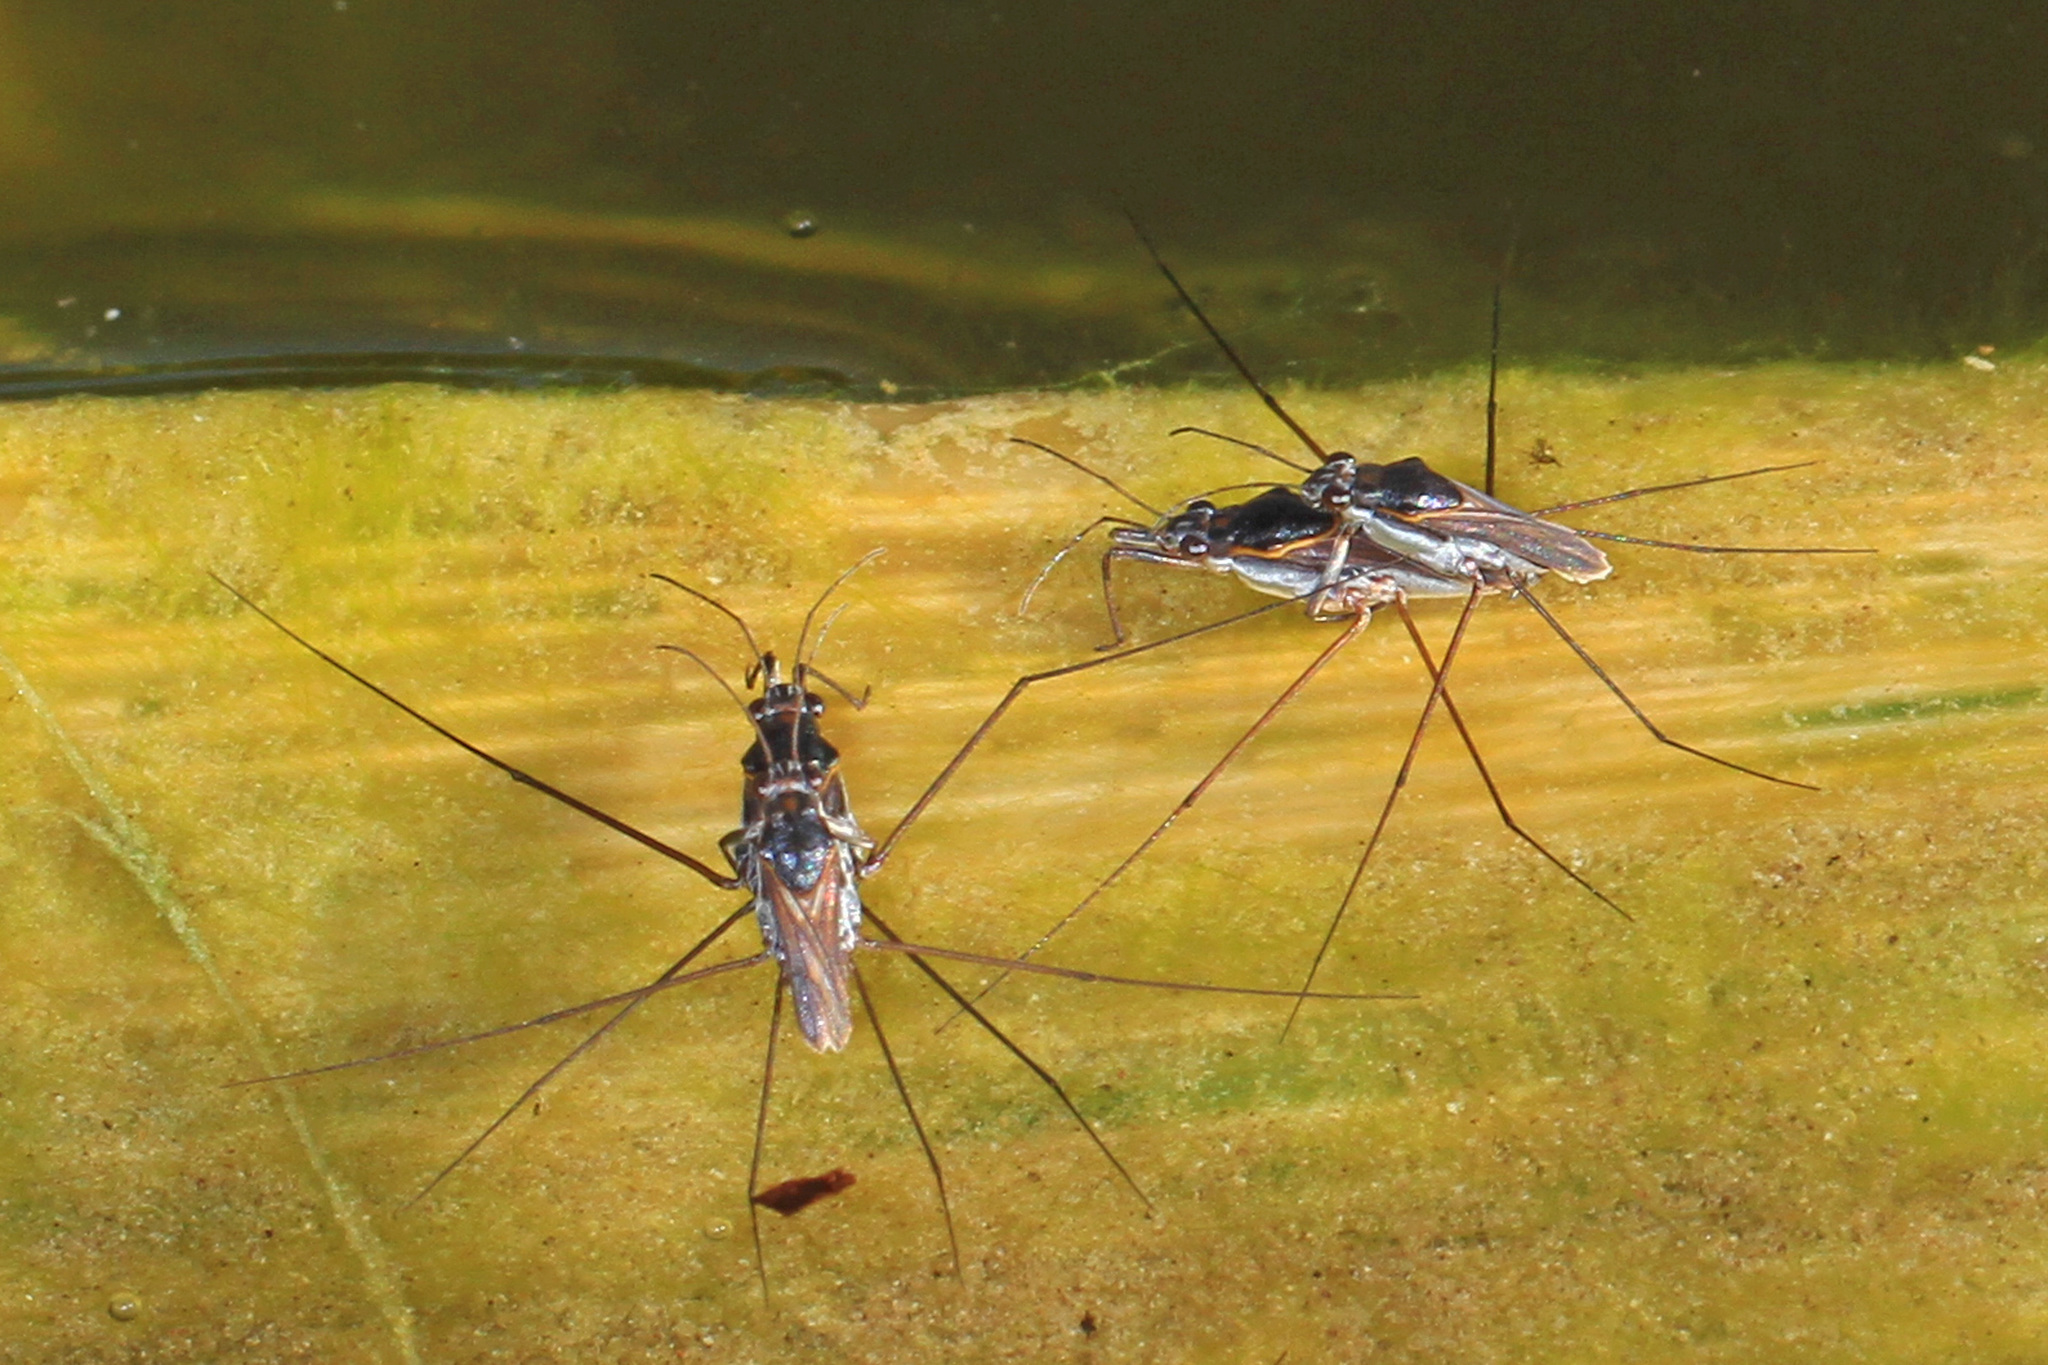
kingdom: Animalia
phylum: Arthropoda
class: Insecta
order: Hemiptera
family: Gerridae
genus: Neogerris
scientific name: Neogerris hesione
